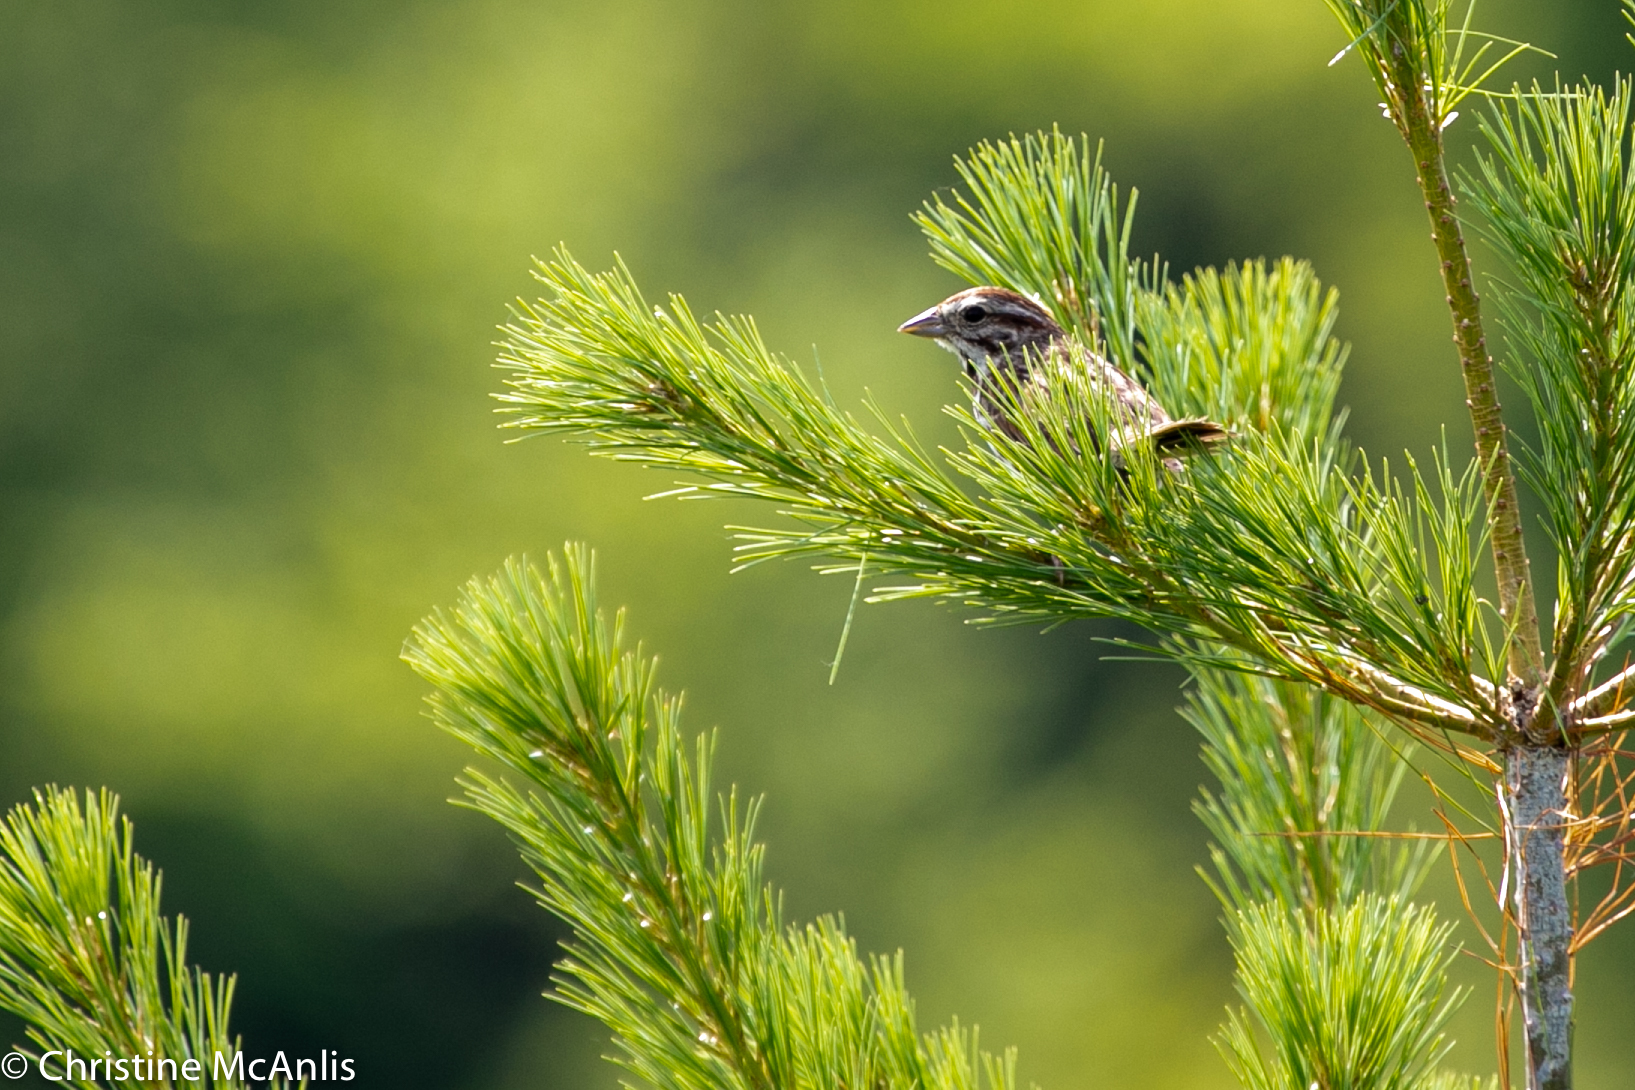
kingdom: Animalia
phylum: Chordata
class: Aves
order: Passeriformes
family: Passerellidae
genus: Melospiza
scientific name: Melospiza melodia
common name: Song sparrow
